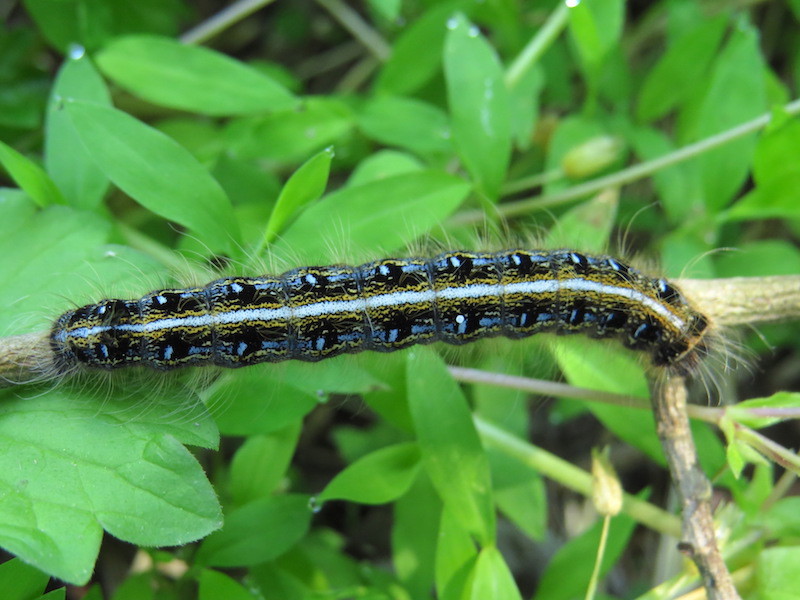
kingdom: Animalia
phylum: Arthropoda
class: Insecta
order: Lepidoptera
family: Lasiocampidae
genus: Malacosoma
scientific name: Malacosoma americana
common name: Eastern tent caterpillar moth
